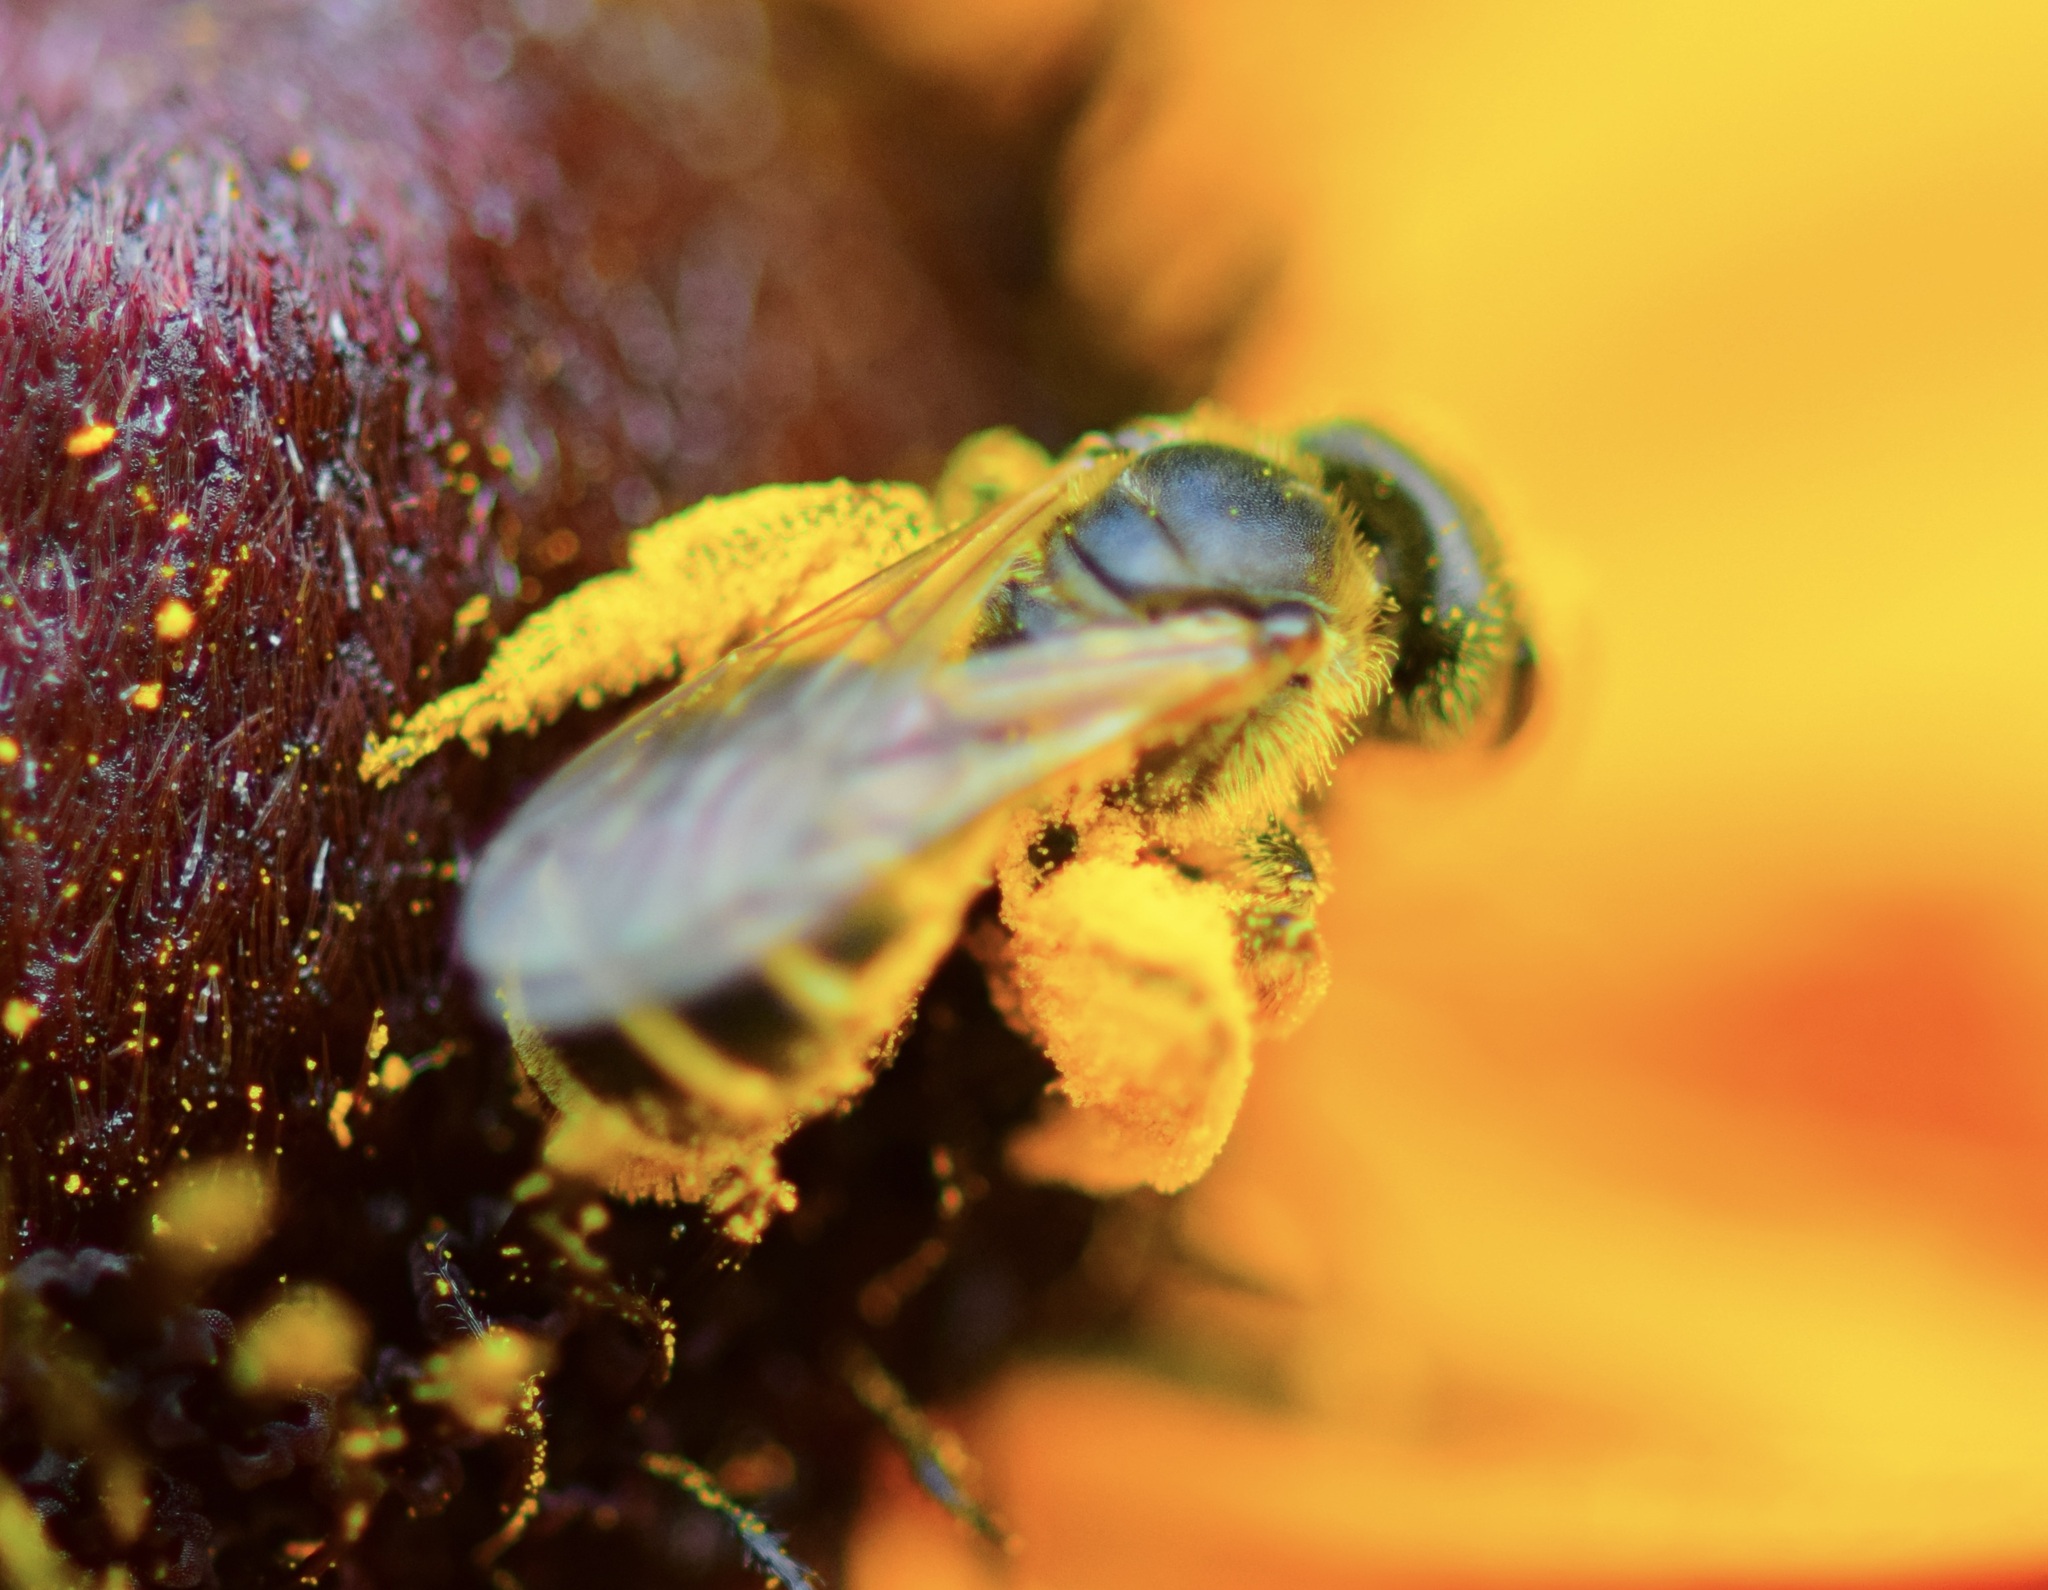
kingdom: Animalia
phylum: Arthropoda
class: Insecta
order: Hymenoptera
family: Halictidae
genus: Halictus
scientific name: Halictus ligatus
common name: Ligated furrow bee
